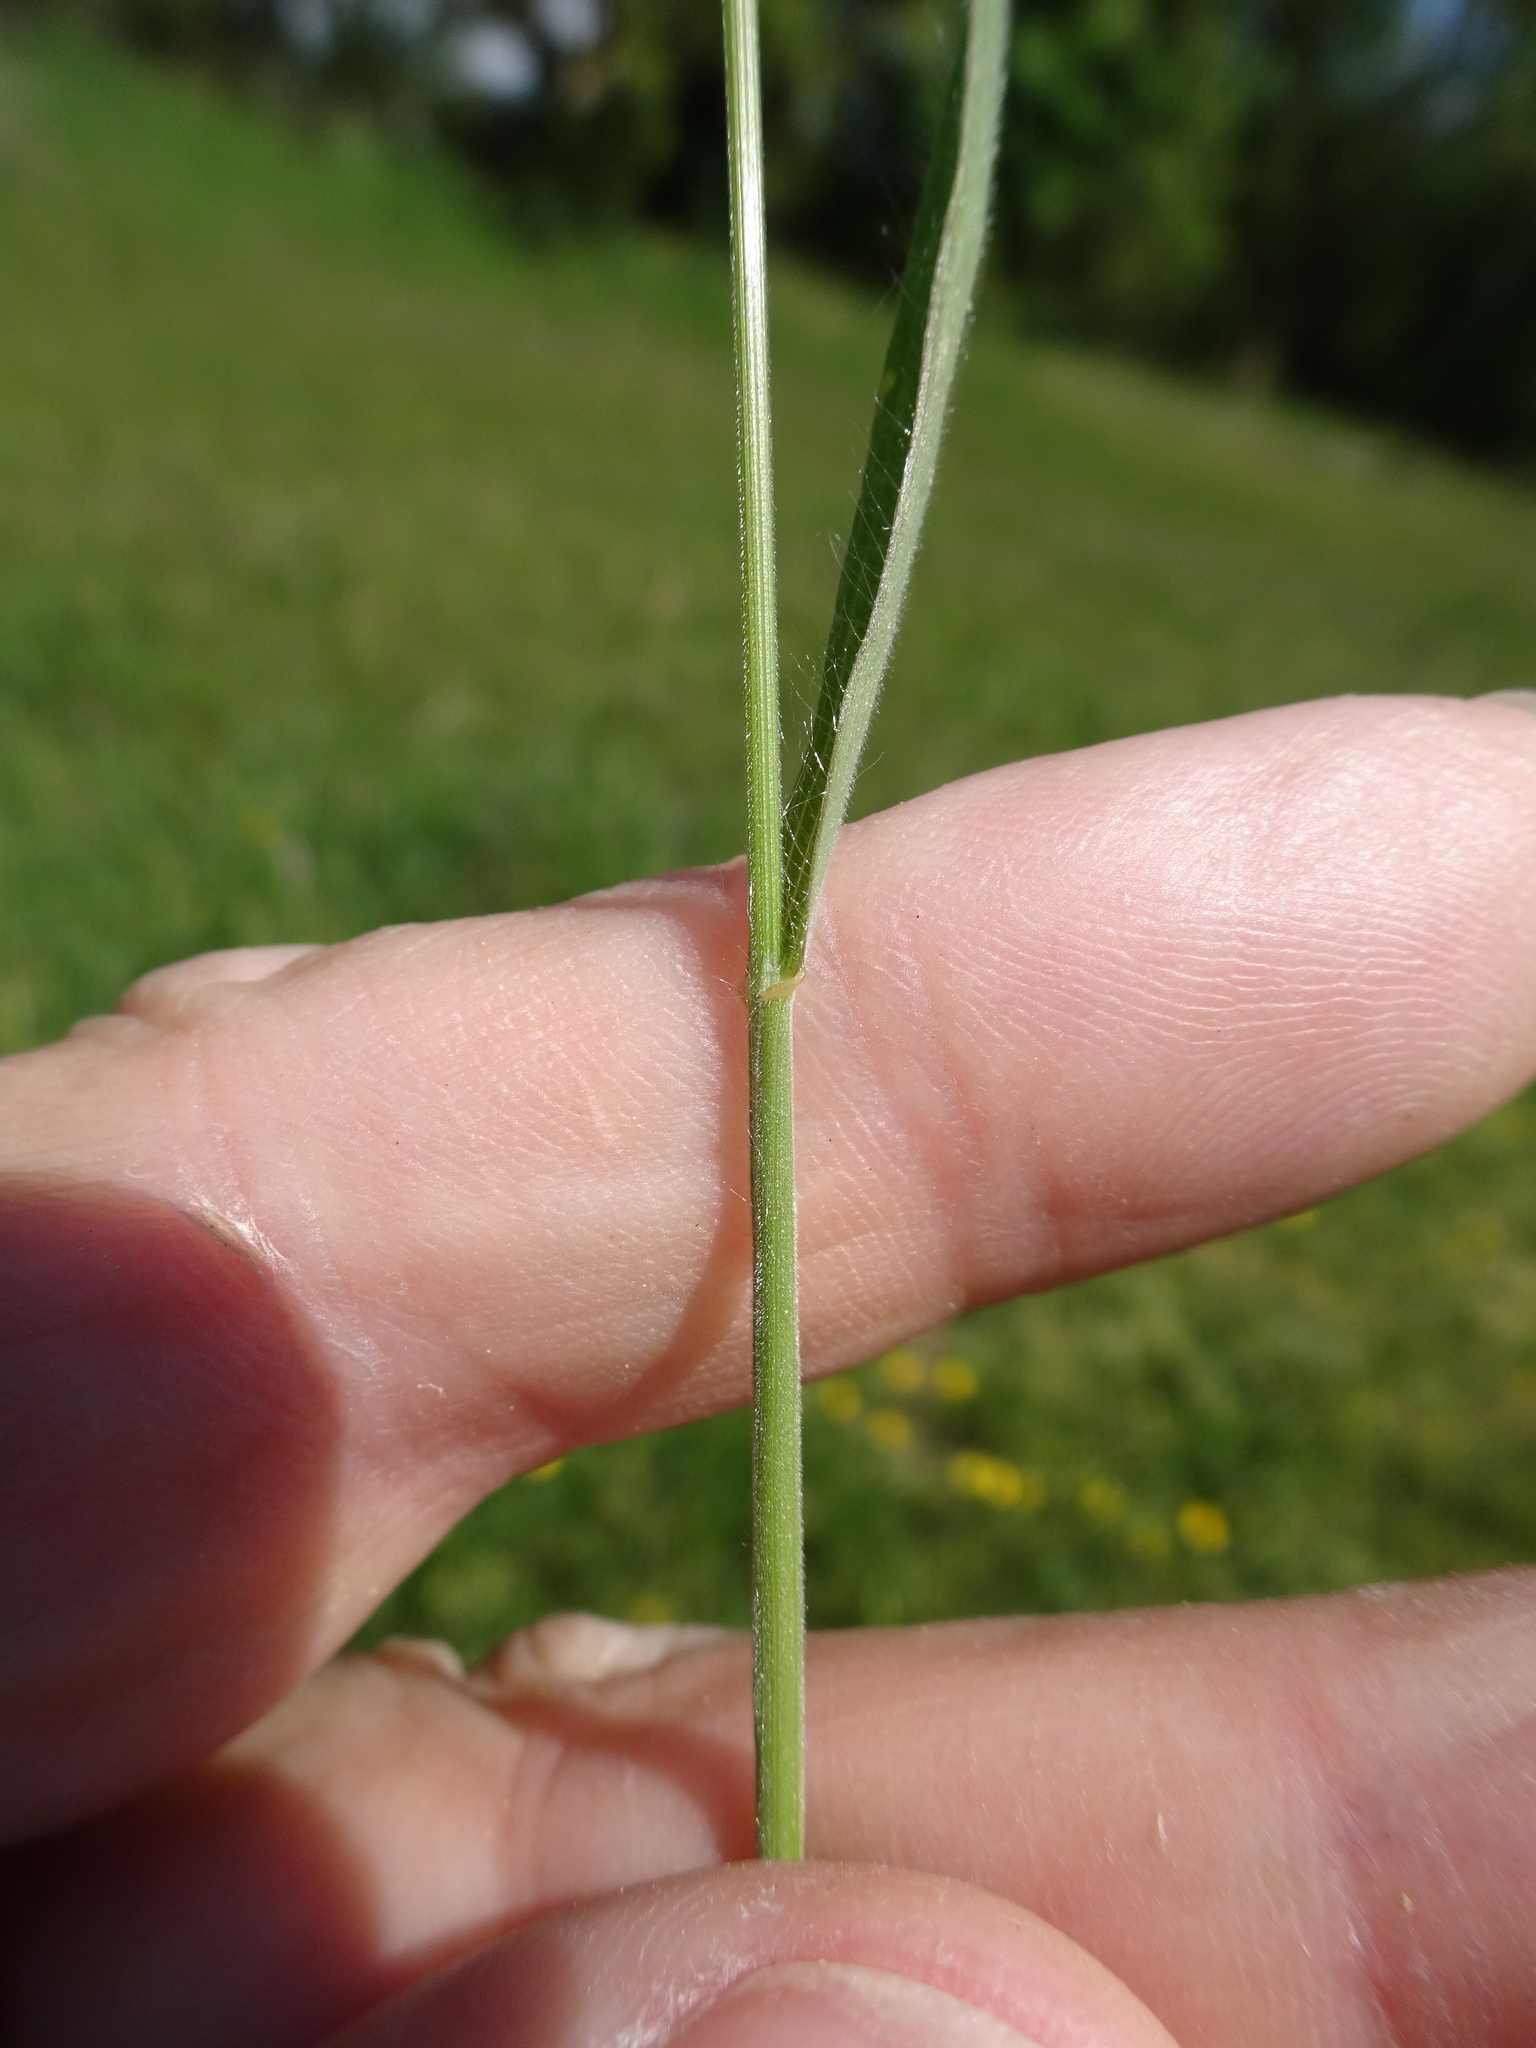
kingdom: Plantae
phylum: Tracheophyta
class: Liliopsida
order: Poales
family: Poaceae
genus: Bromus
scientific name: Bromus hordeaceus
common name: Soft brome
